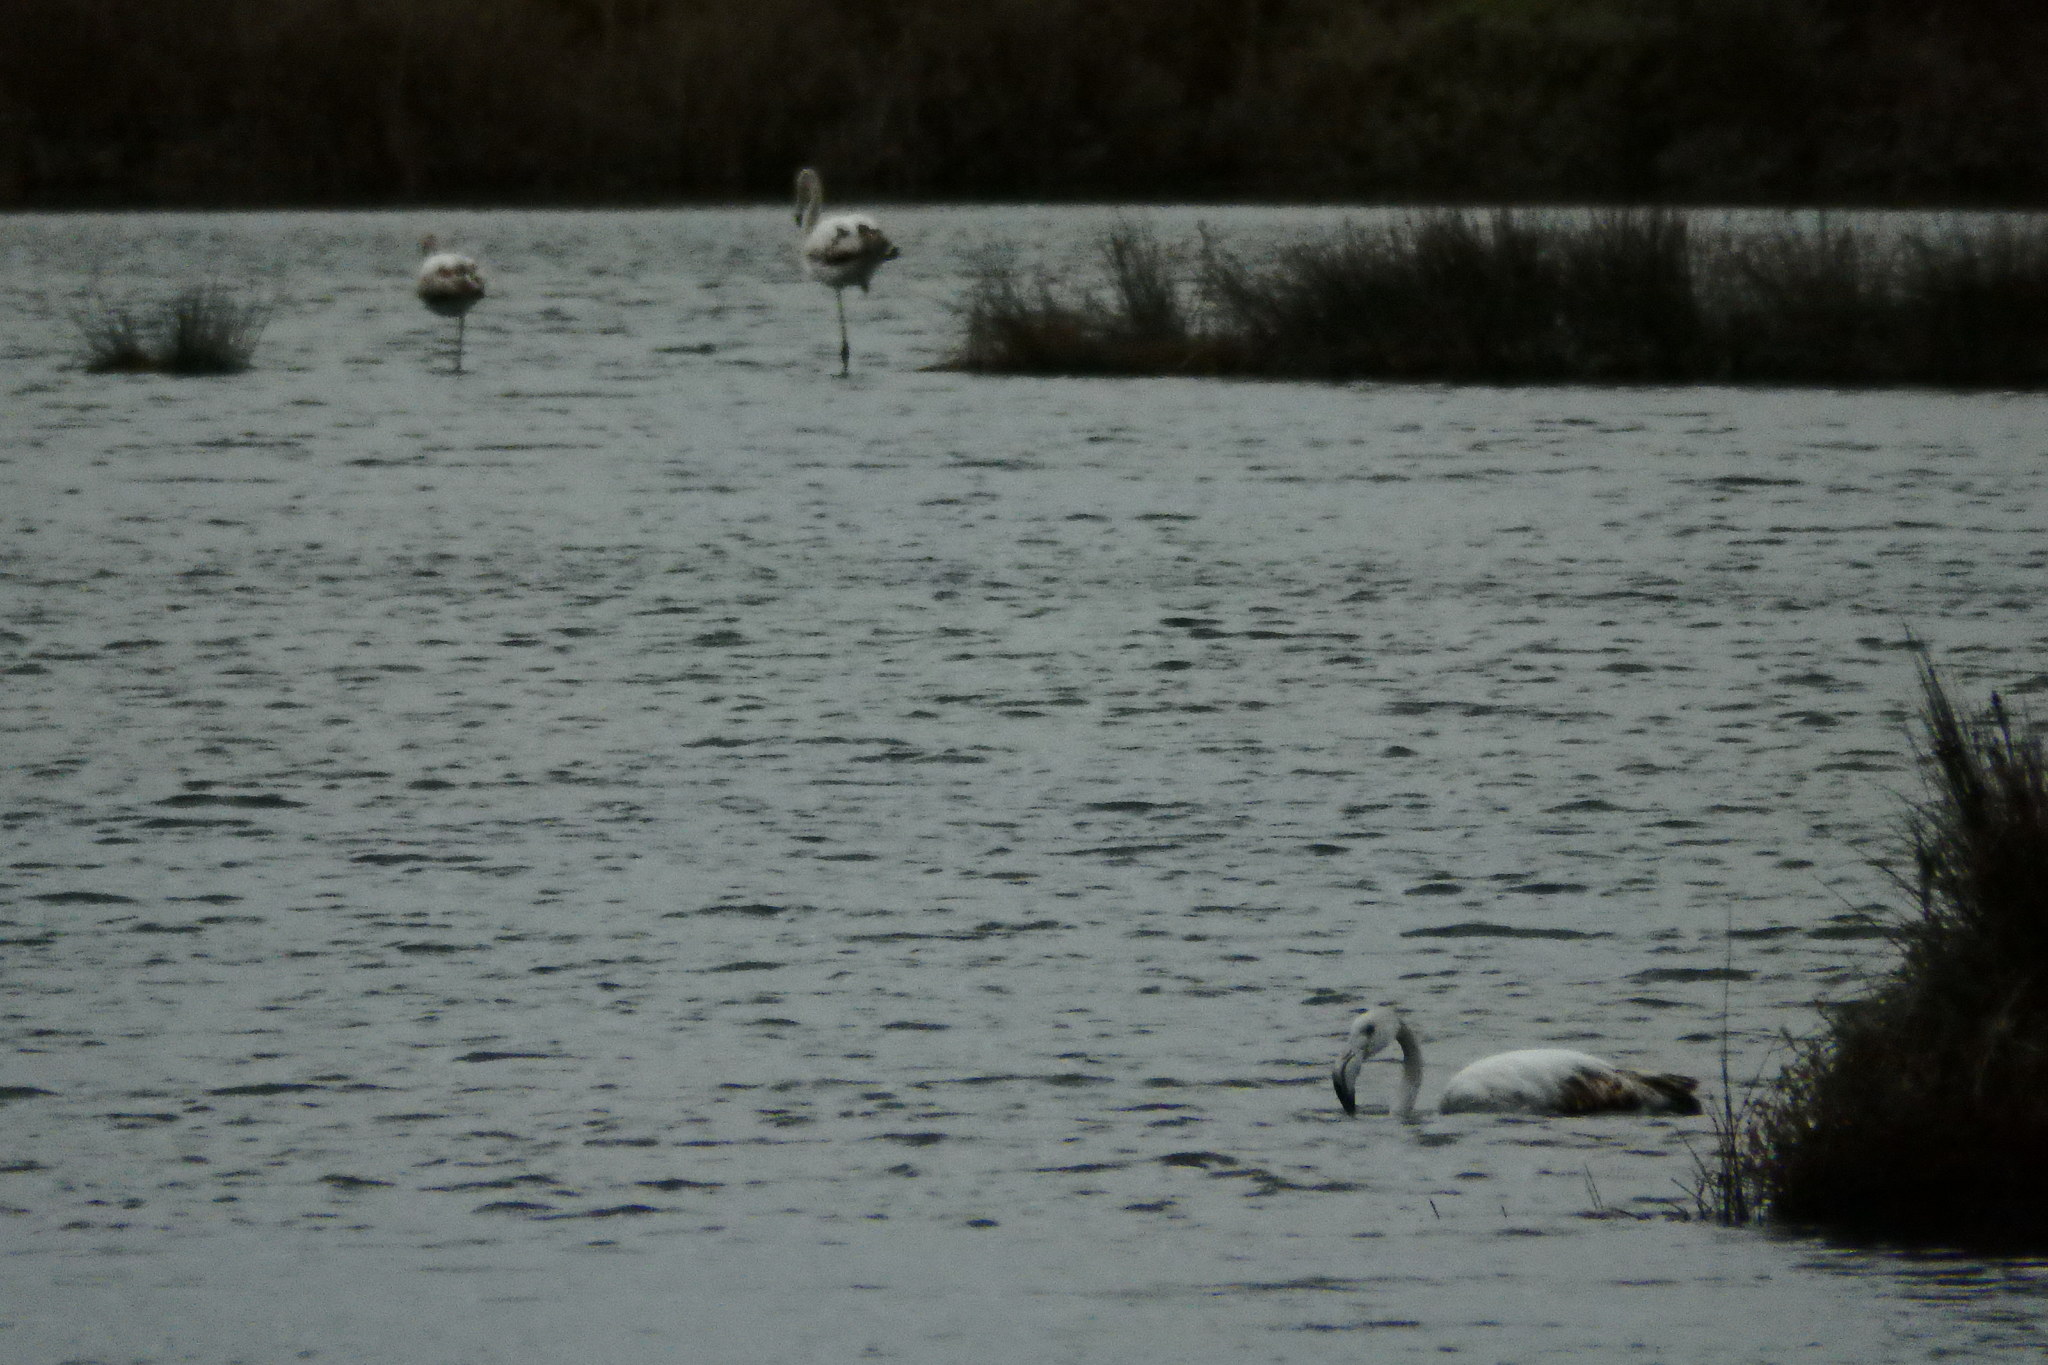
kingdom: Animalia
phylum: Chordata
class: Aves
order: Phoenicopteriformes
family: Phoenicopteridae
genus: Phoenicopterus
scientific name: Phoenicopterus roseus
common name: Greater flamingo
